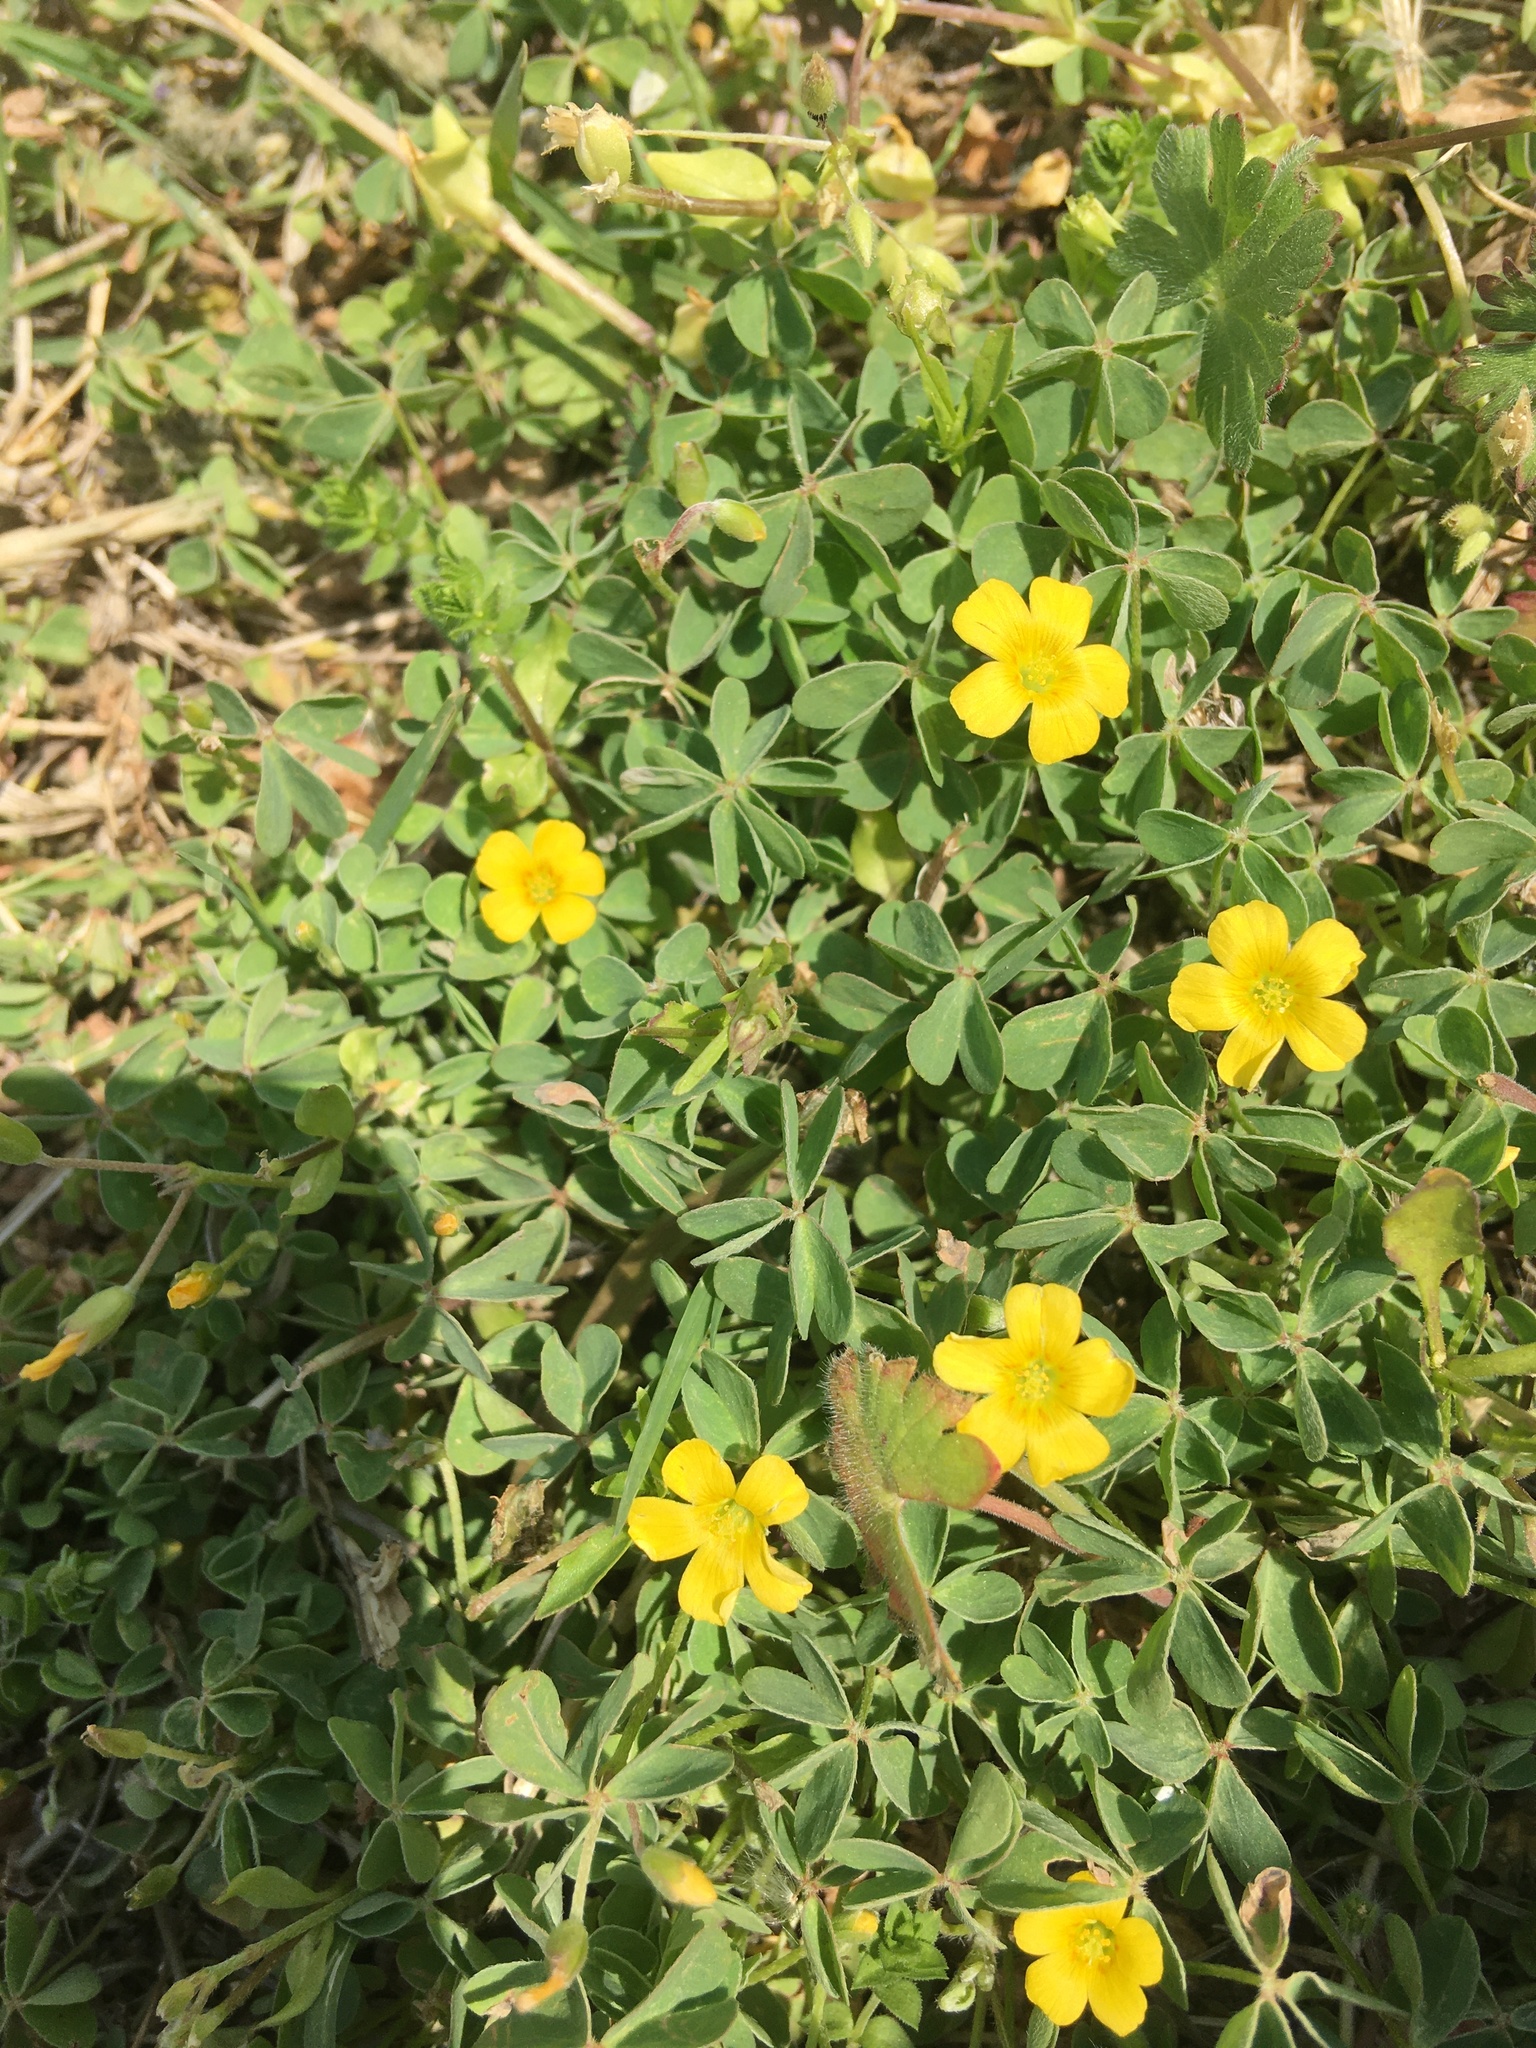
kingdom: Plantae
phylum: Tracheophyta
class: Magnoliopsida
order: Oxalidales
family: Oxalidaceae
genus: Oxalis
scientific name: Oxalis dillenii
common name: Sussex yellow-sorrel
